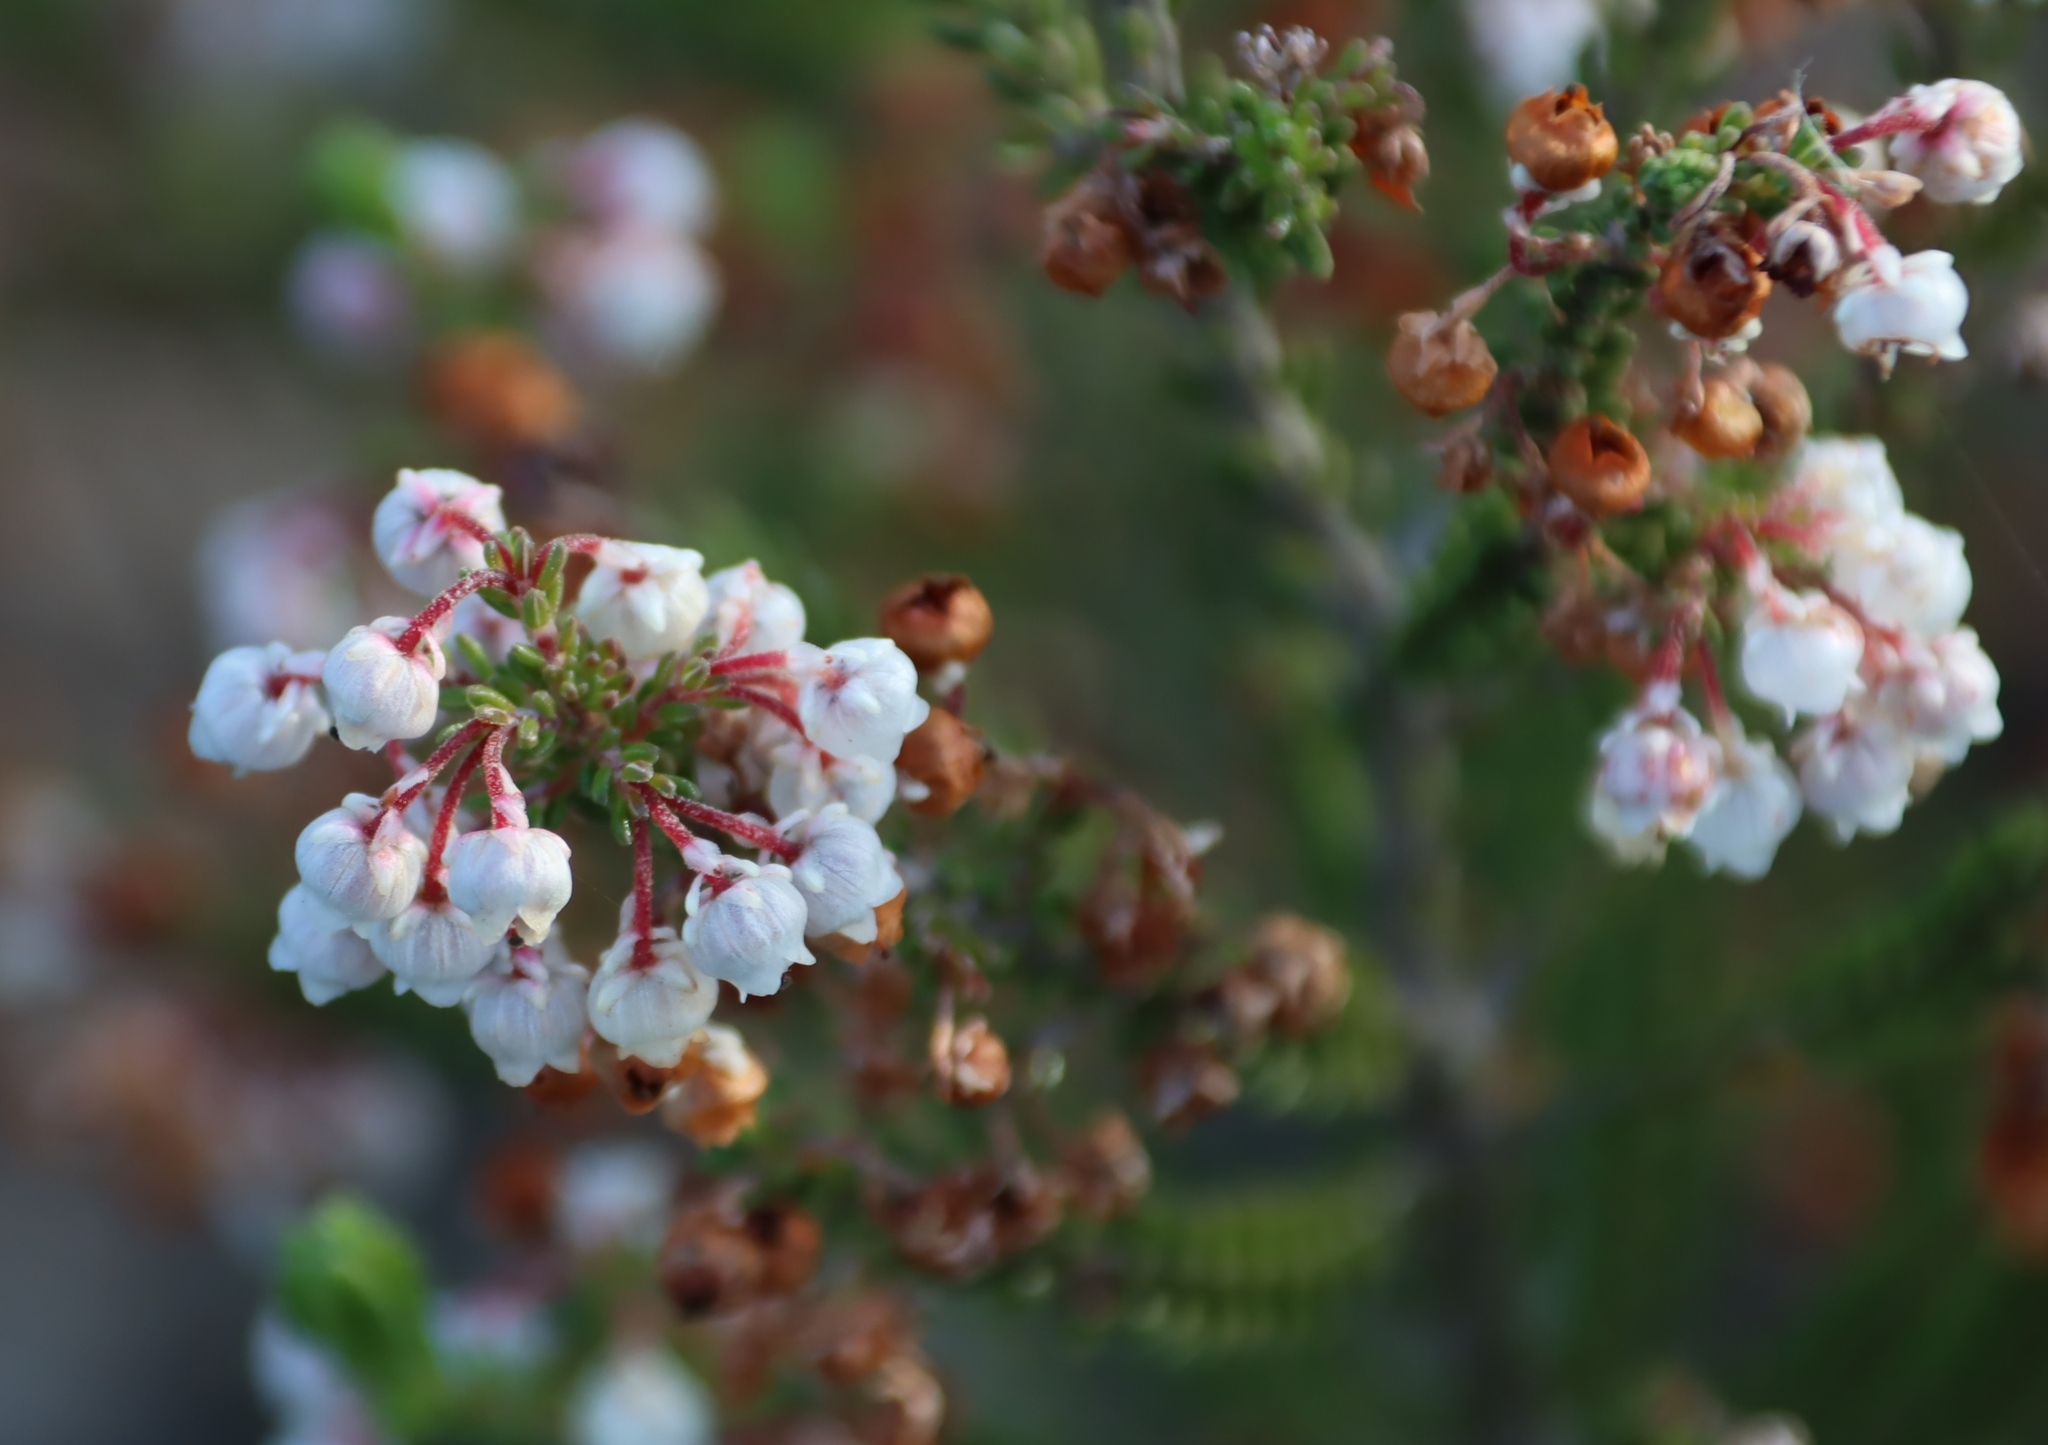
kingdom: Plantae
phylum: Tracheophyta
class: Magnoliopsida
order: Ericales
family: Ericaceae
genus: Erica
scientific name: Erica spectabilis
